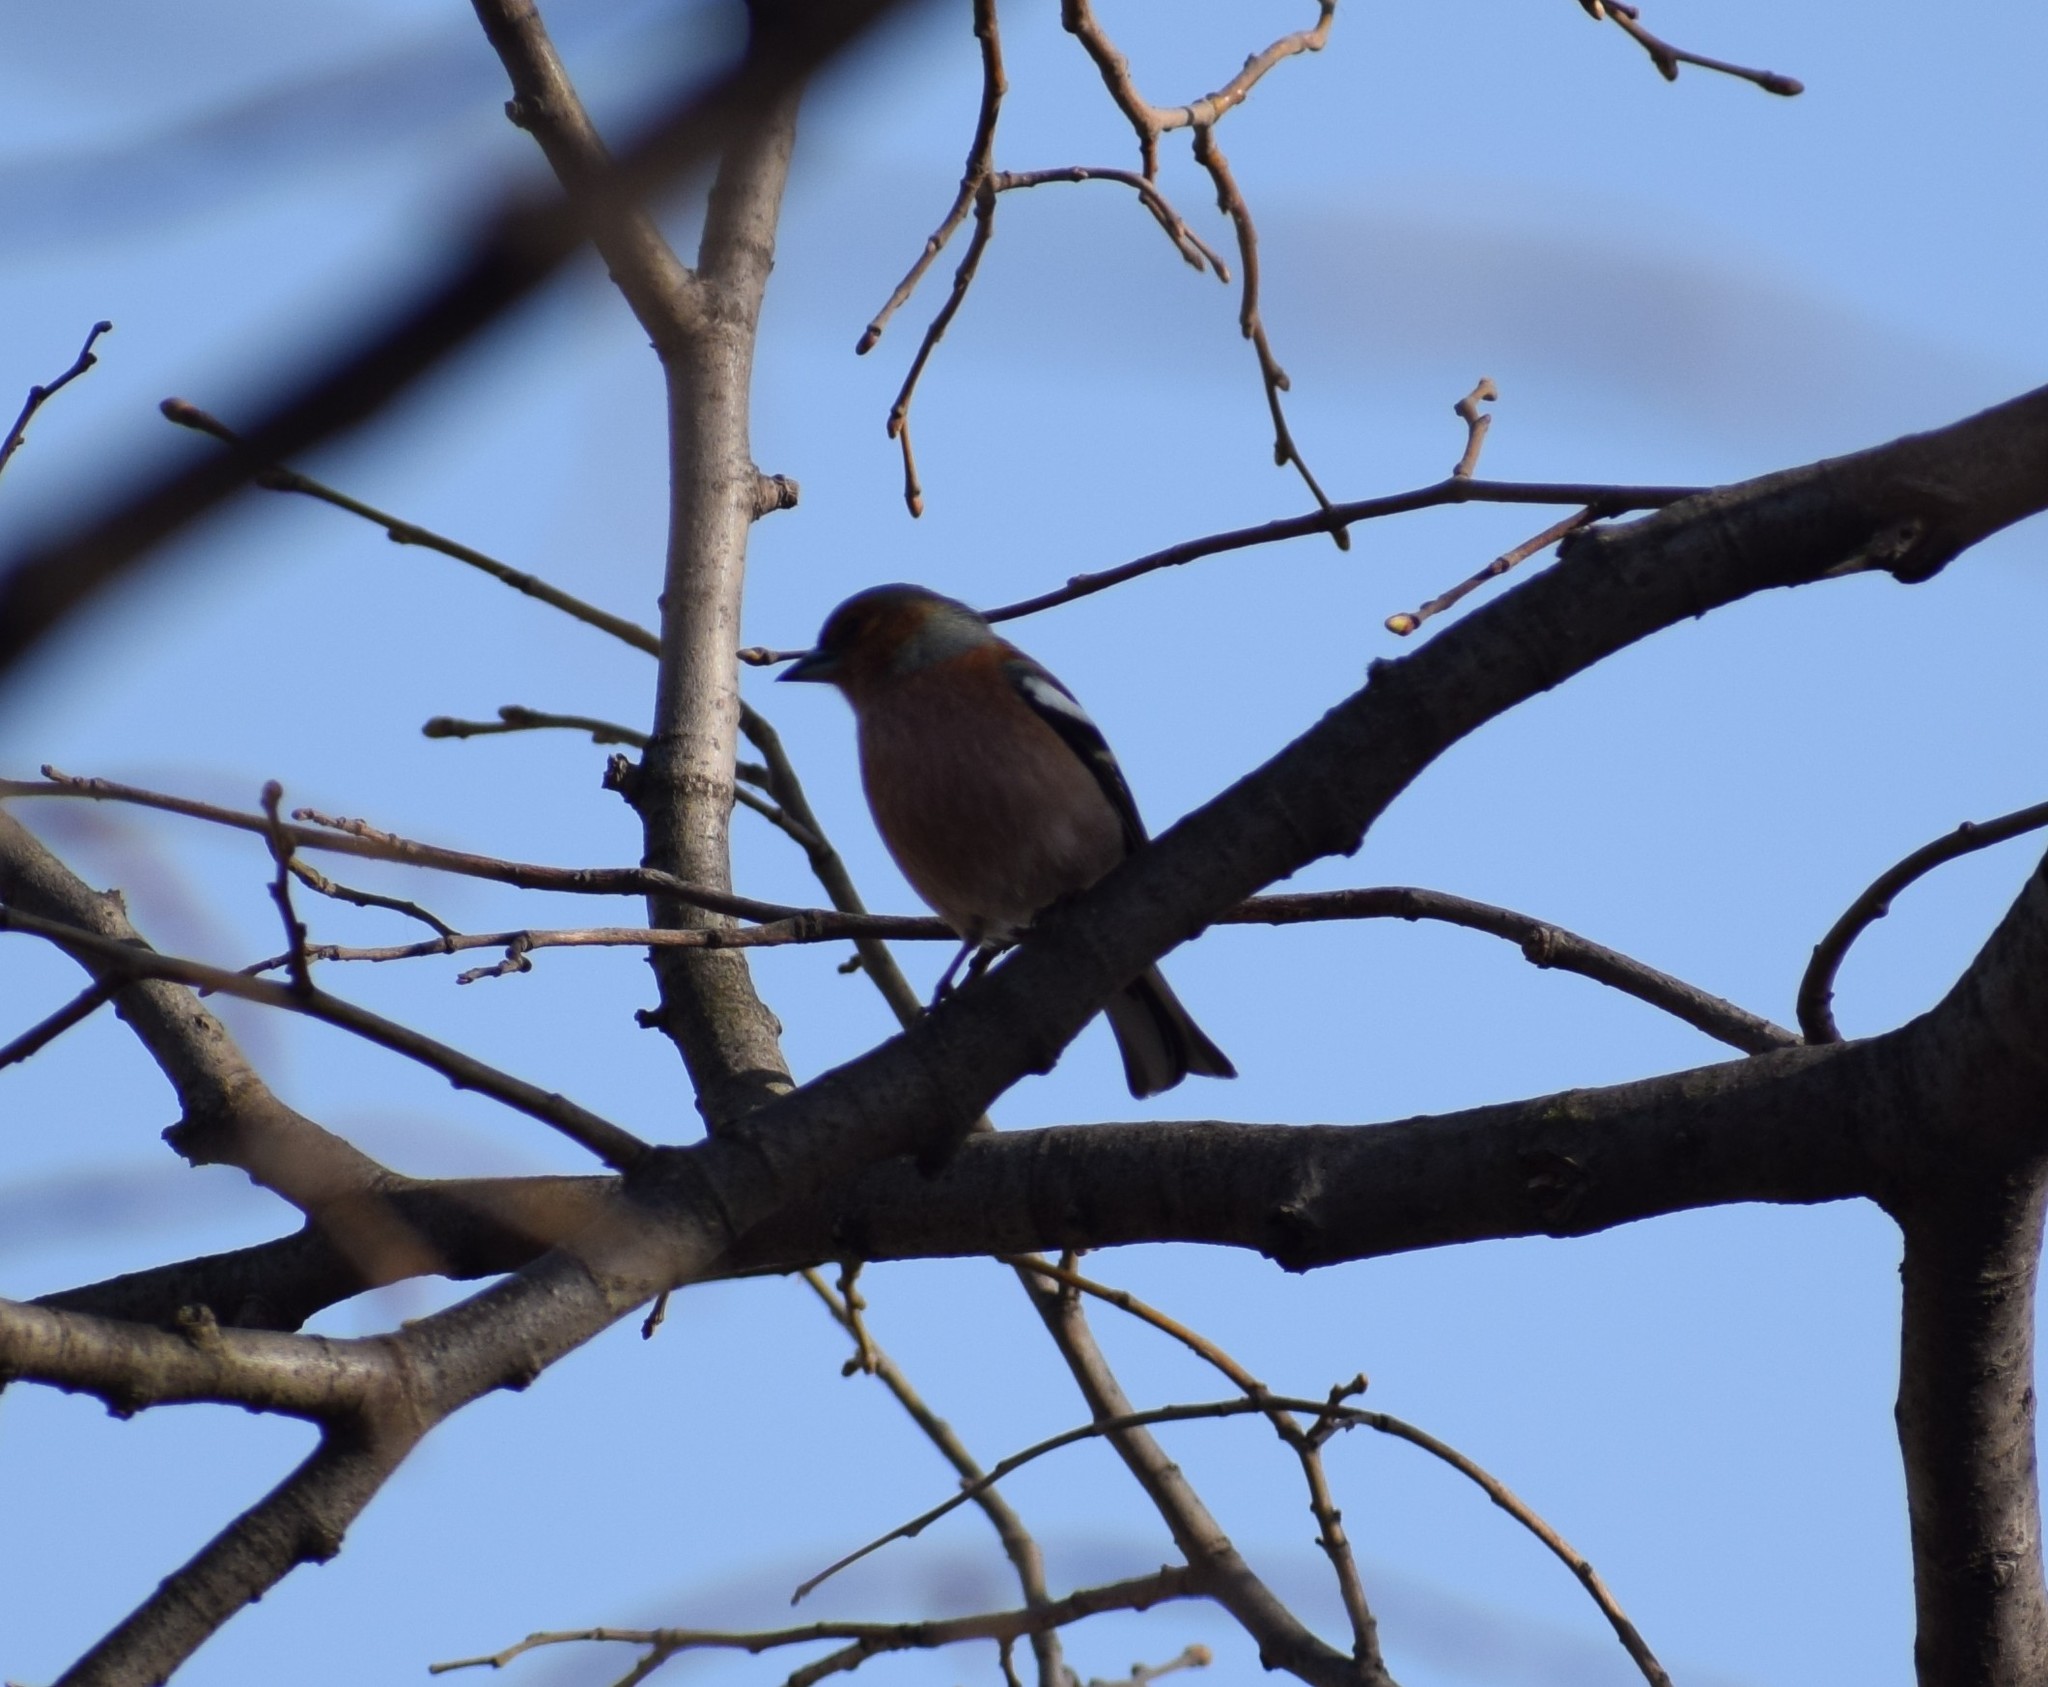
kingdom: Animalia
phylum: Chordata
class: Aves
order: Passeriformes
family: Fringillidae
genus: Fringilla
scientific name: Fringilla coelebs
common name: Common chaffinch
